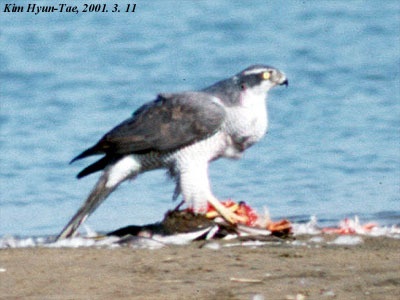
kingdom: Animalia
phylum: Chordata
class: Aves
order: Accipitriformes
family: Accipitridae
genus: Accipiter
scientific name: Accipiter gentilis
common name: Northern goshawk
